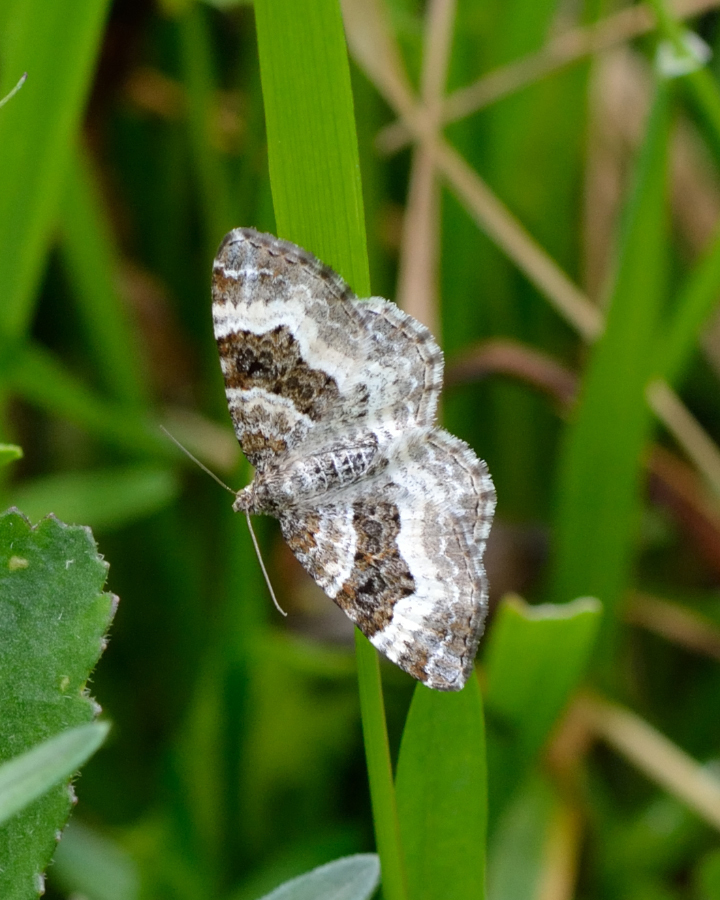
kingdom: Animalia
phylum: Arthropoda
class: Insecta
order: Lepidoptera
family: Geometridae
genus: Epirrhoe
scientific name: Epirrhoe alternata
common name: Common carpet
